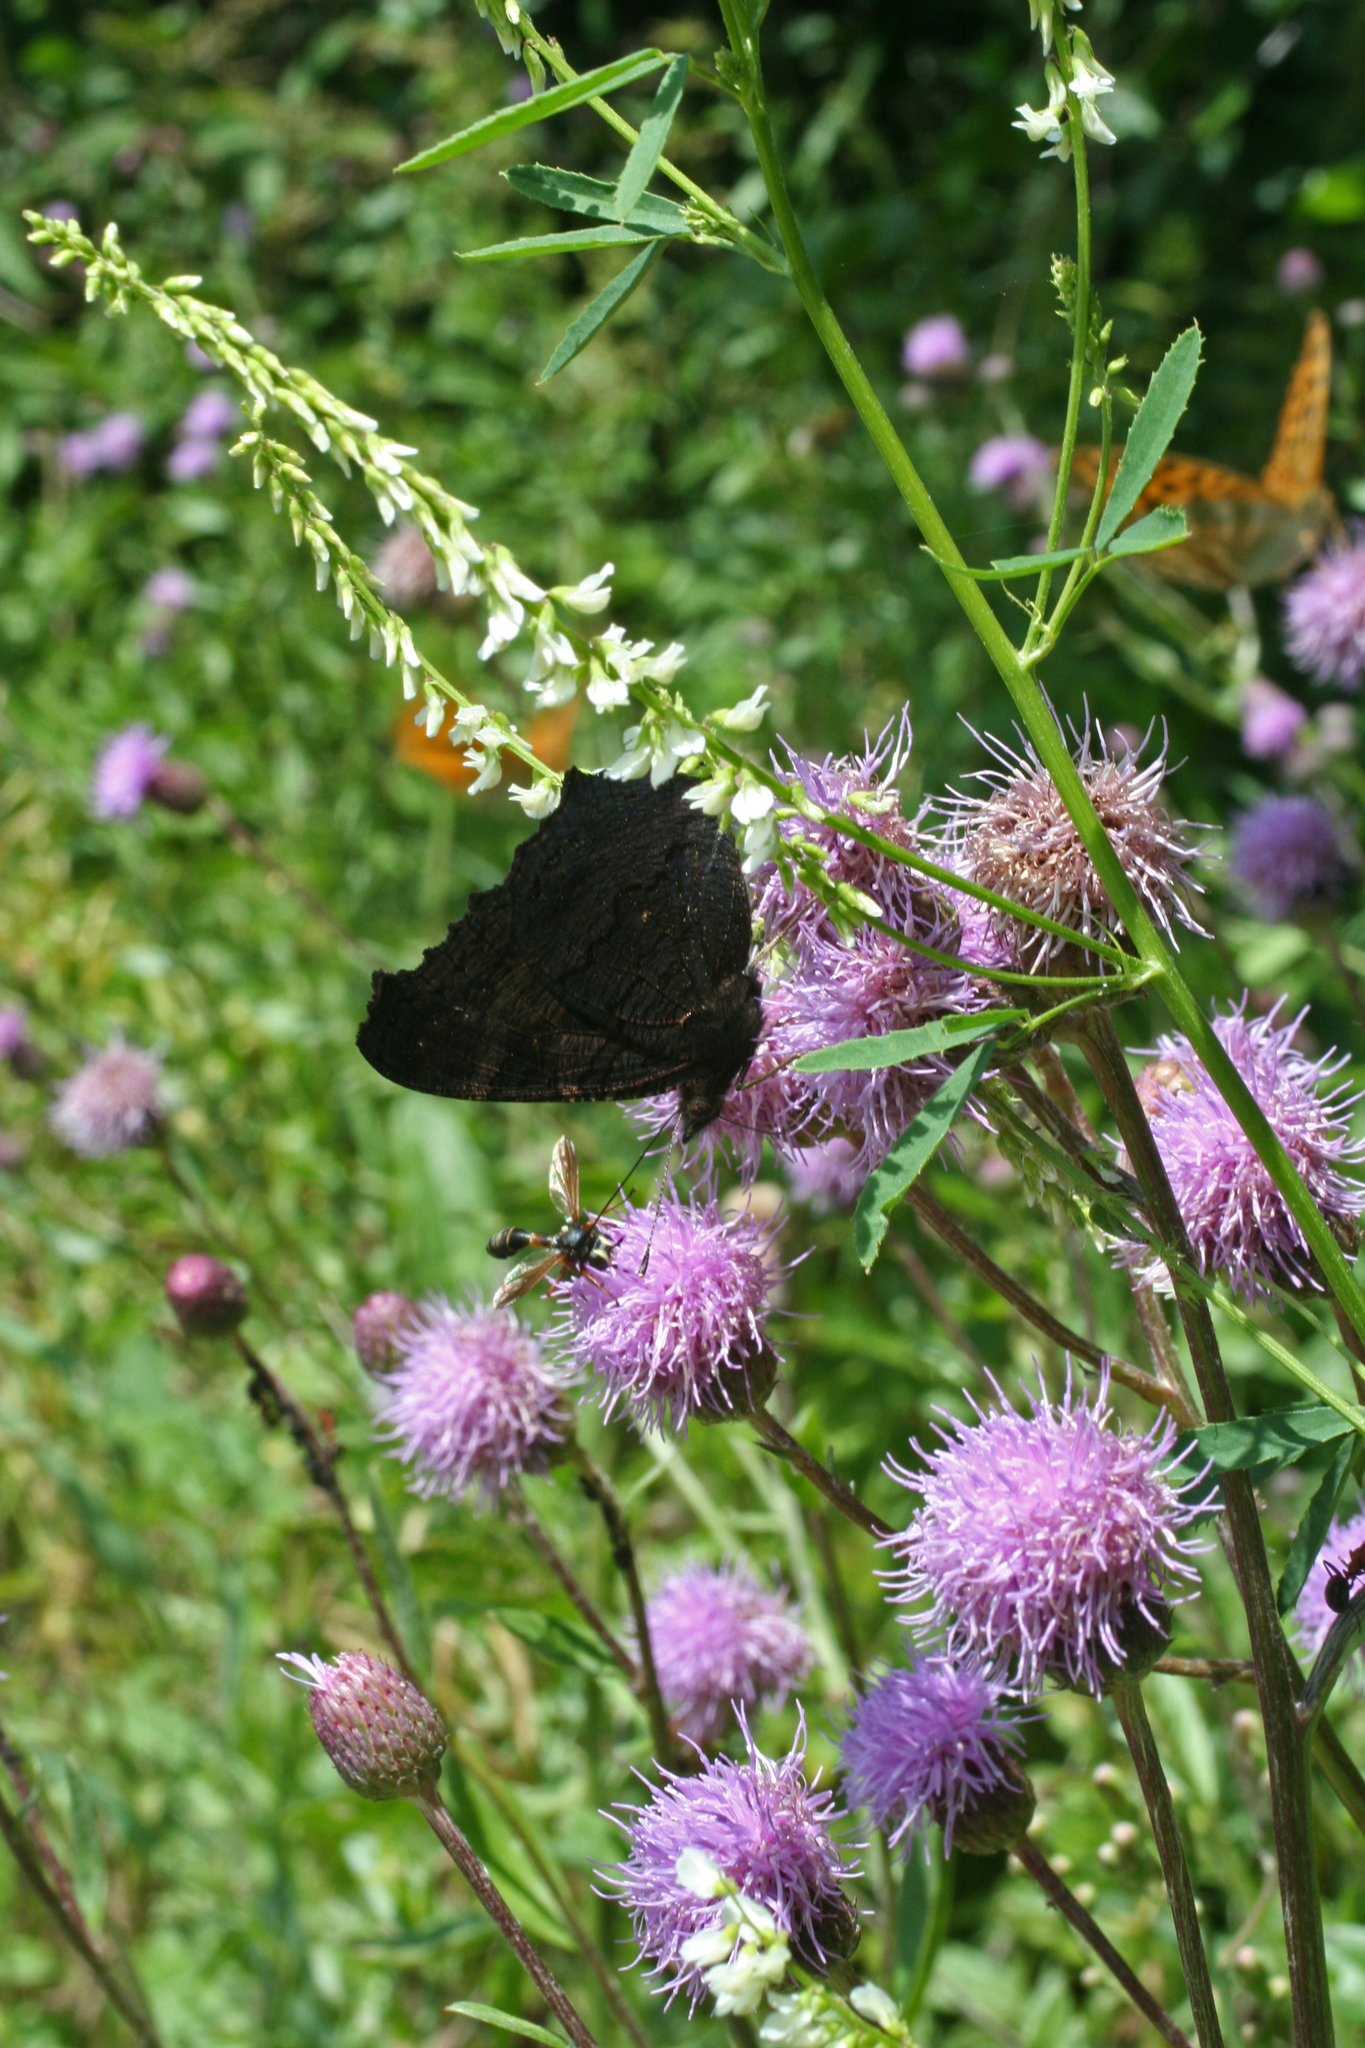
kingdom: Animalia
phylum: Arthropoda
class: Insecta
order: Lepidoptera
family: Nymphalidae
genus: Aglais
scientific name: Aglais io
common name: Peacock
